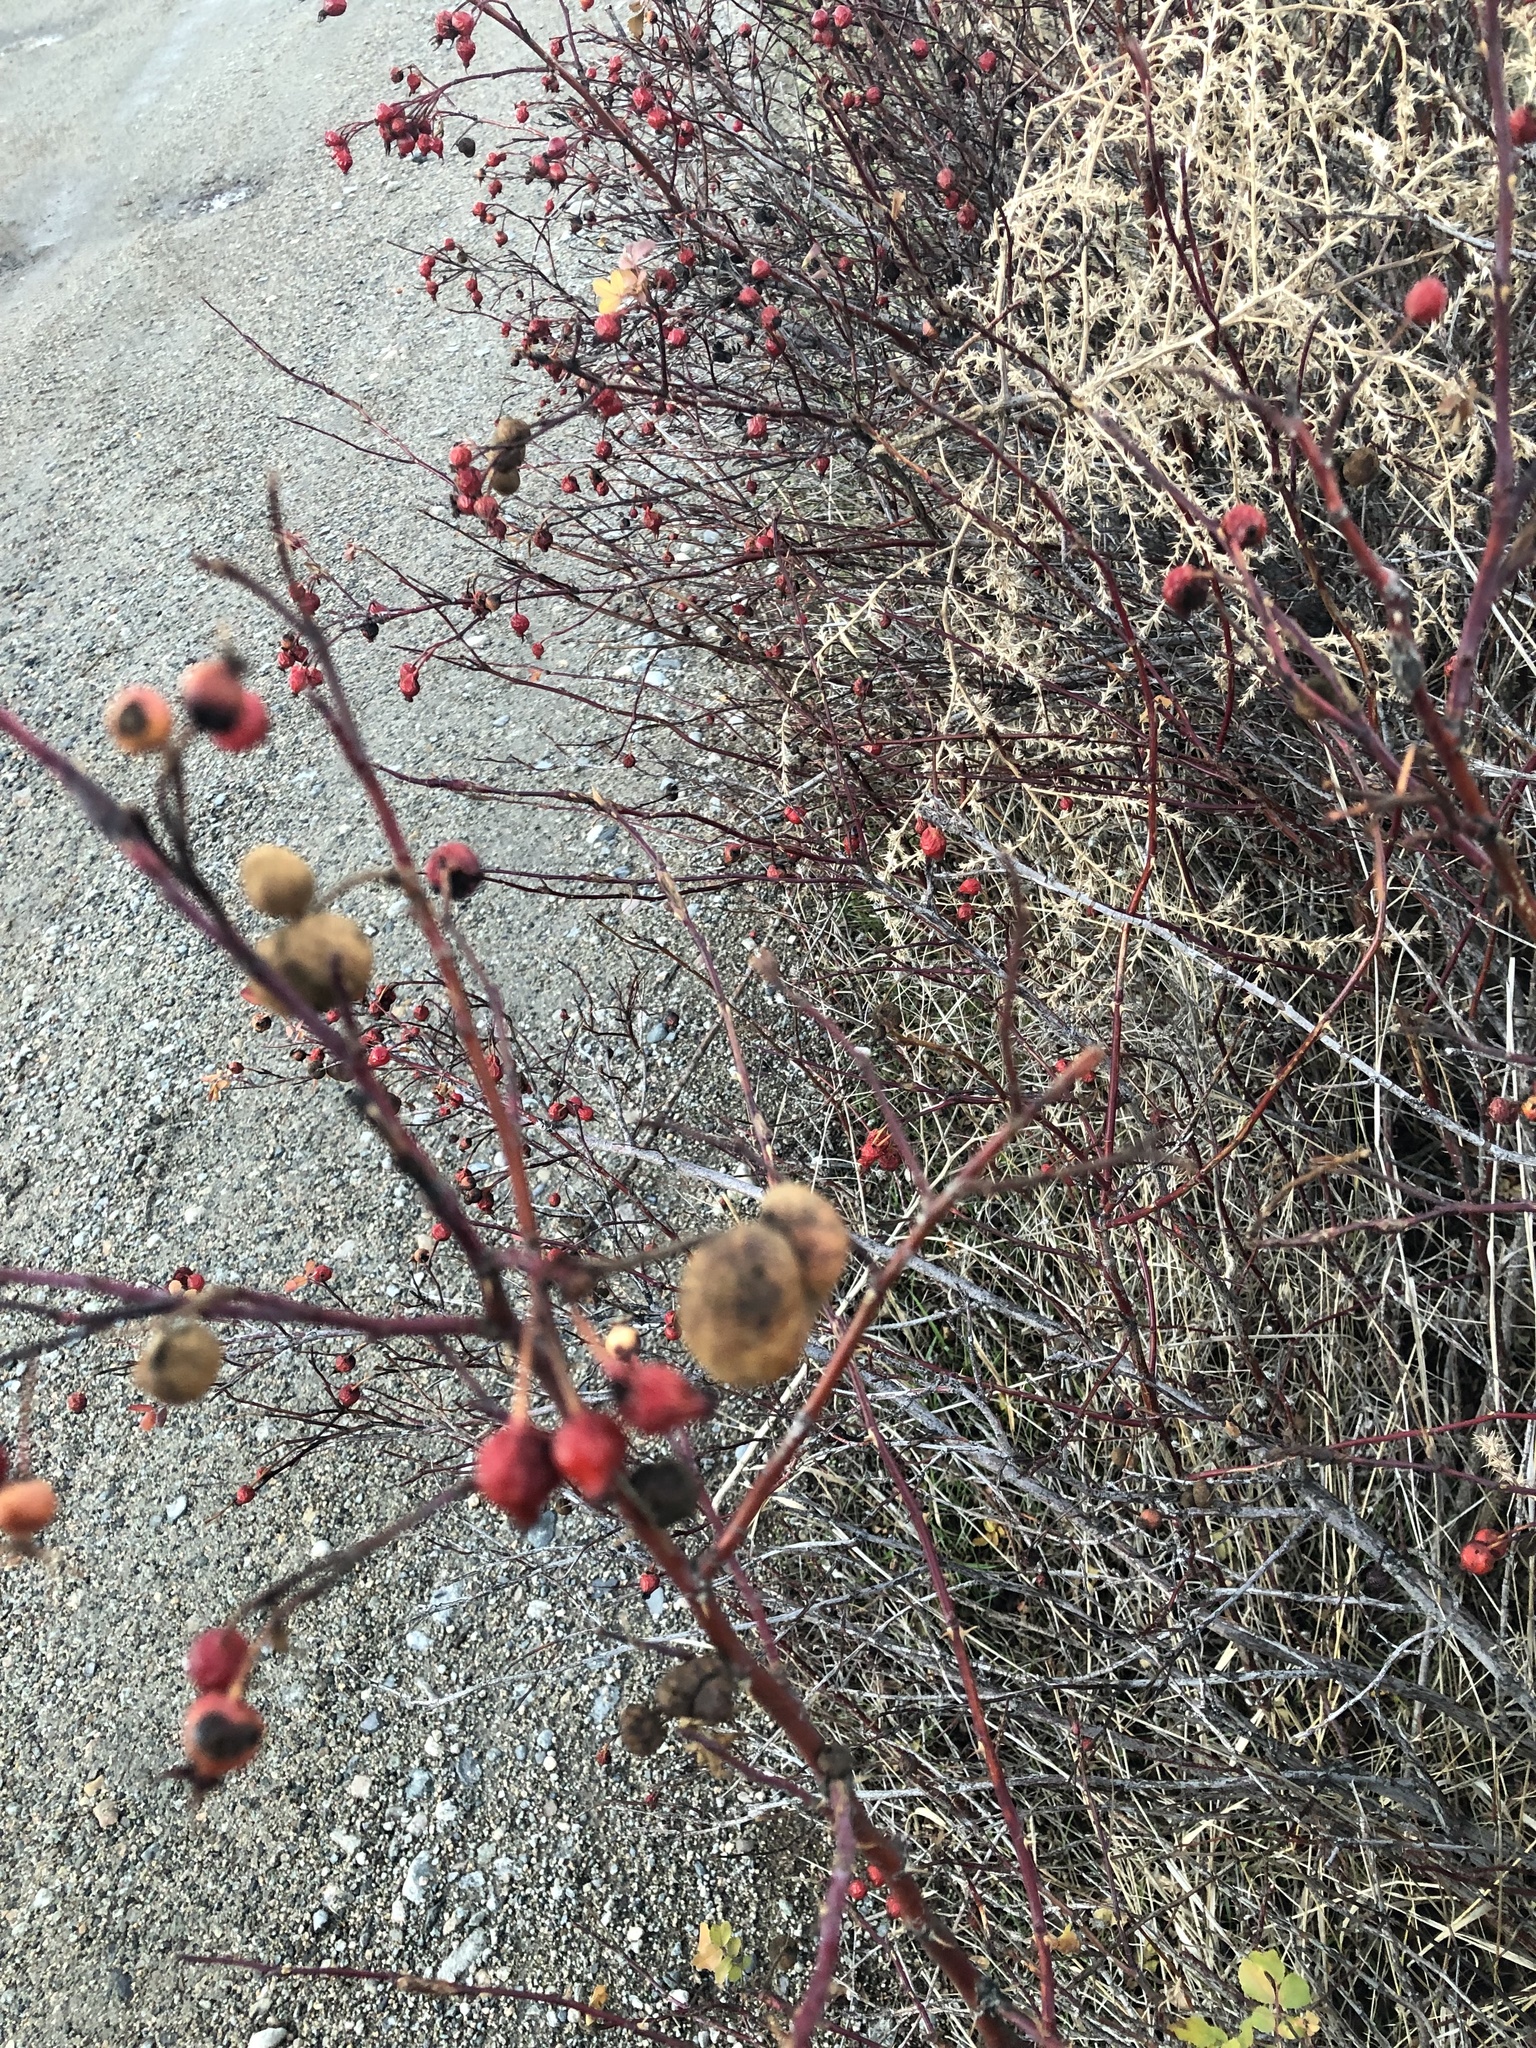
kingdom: Animalia
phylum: Arthropoda
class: Insecta
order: Hymenoptera
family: Cynipidae
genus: Diplolepis
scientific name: Diplolepis variabilis
